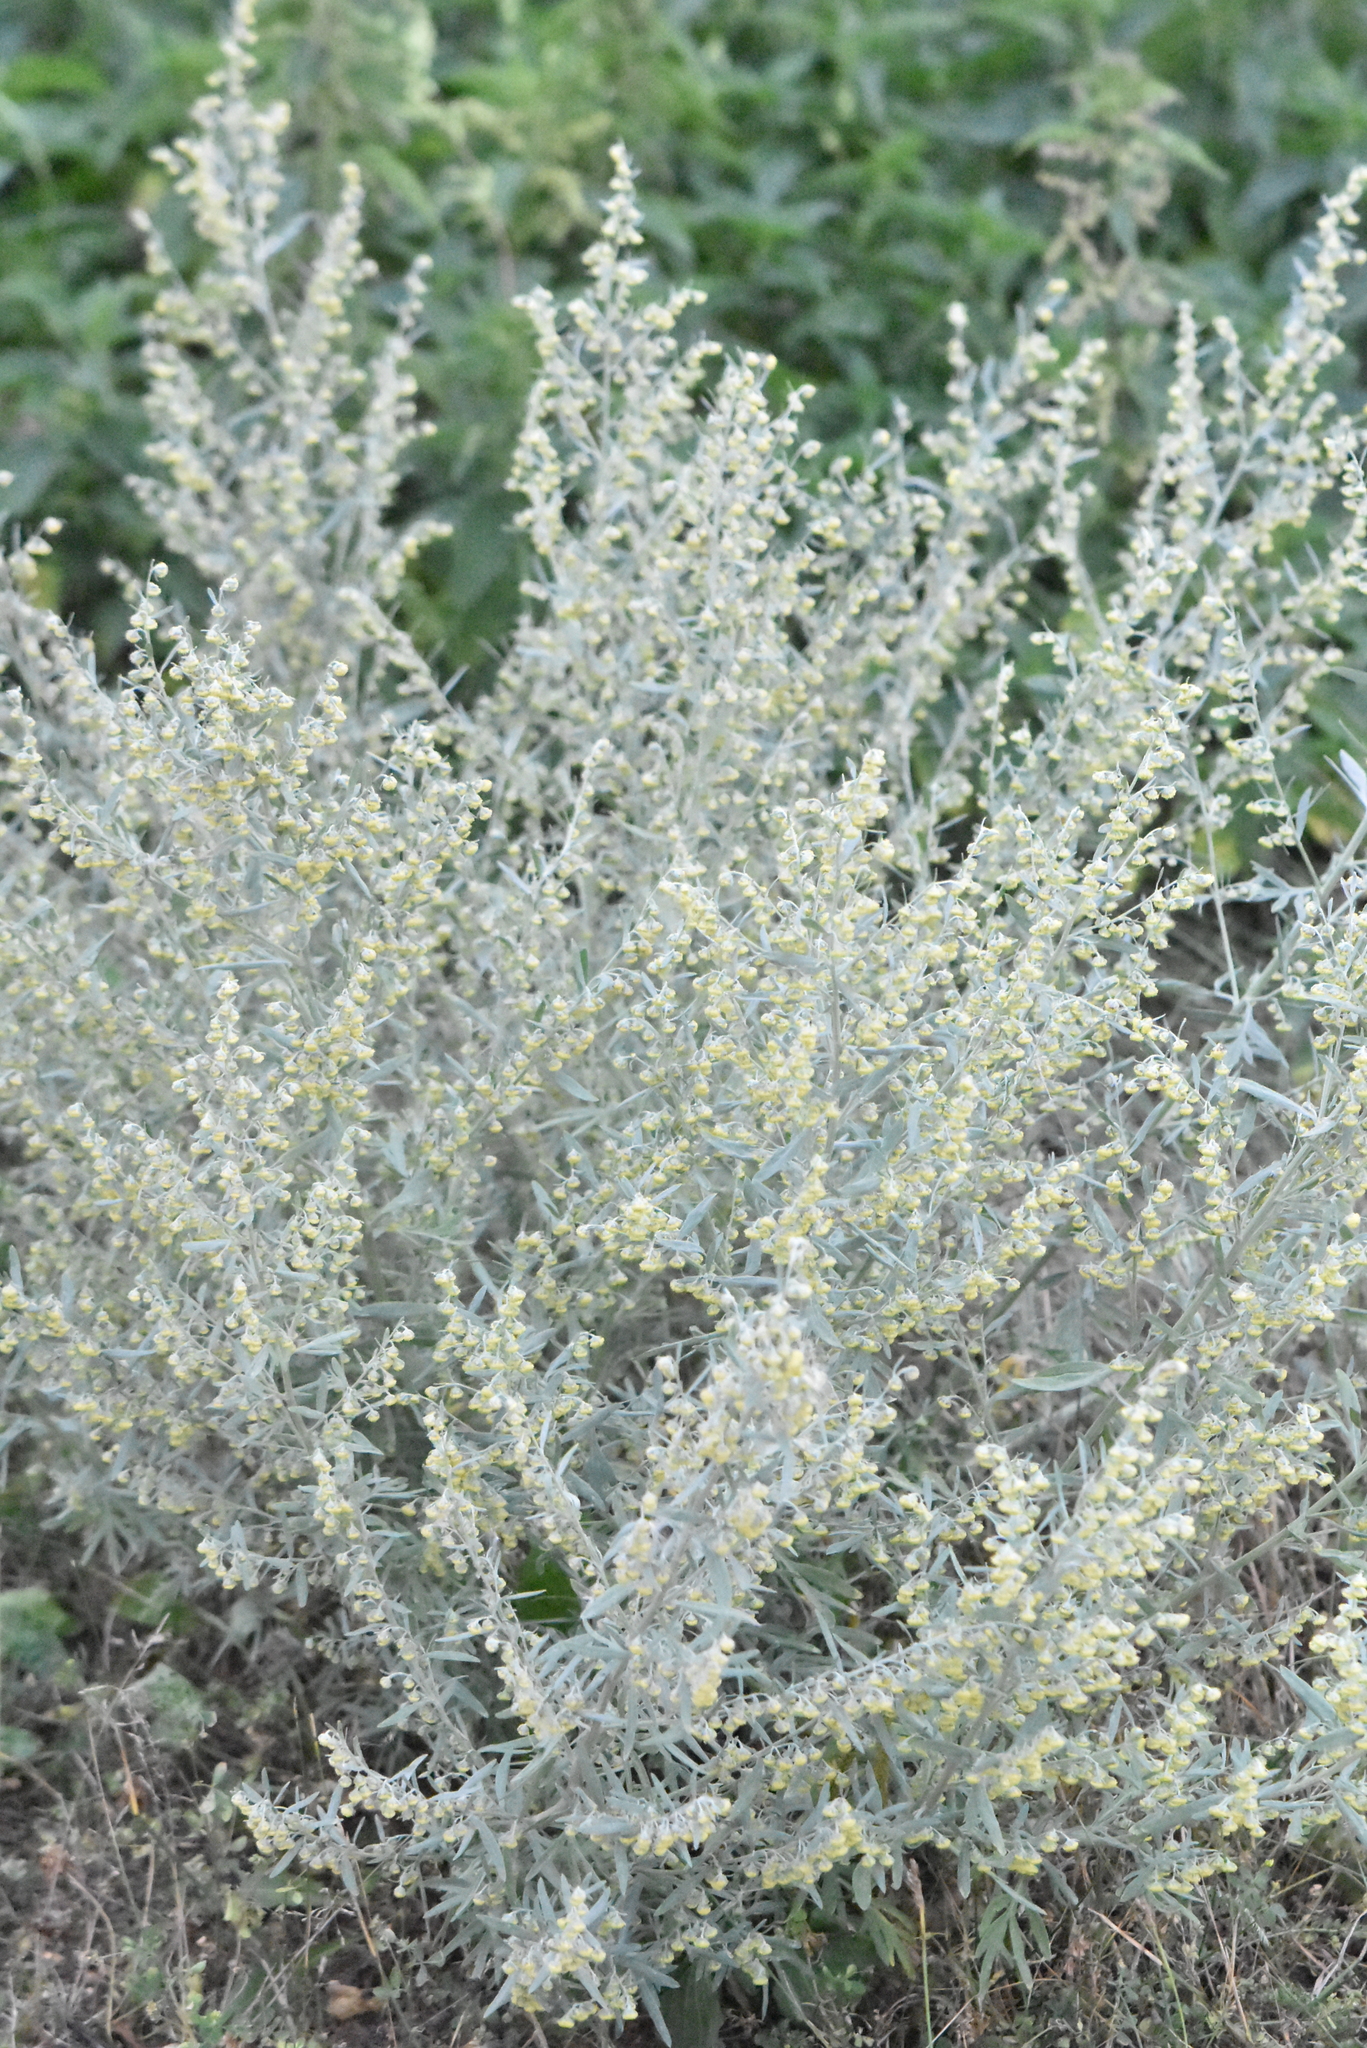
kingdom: Plantae
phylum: Tracheophyta
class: Magnoliopsida
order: Asterales
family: Asteraceae
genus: Artemisia
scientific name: Artemisia absinthium
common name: Wormwood
